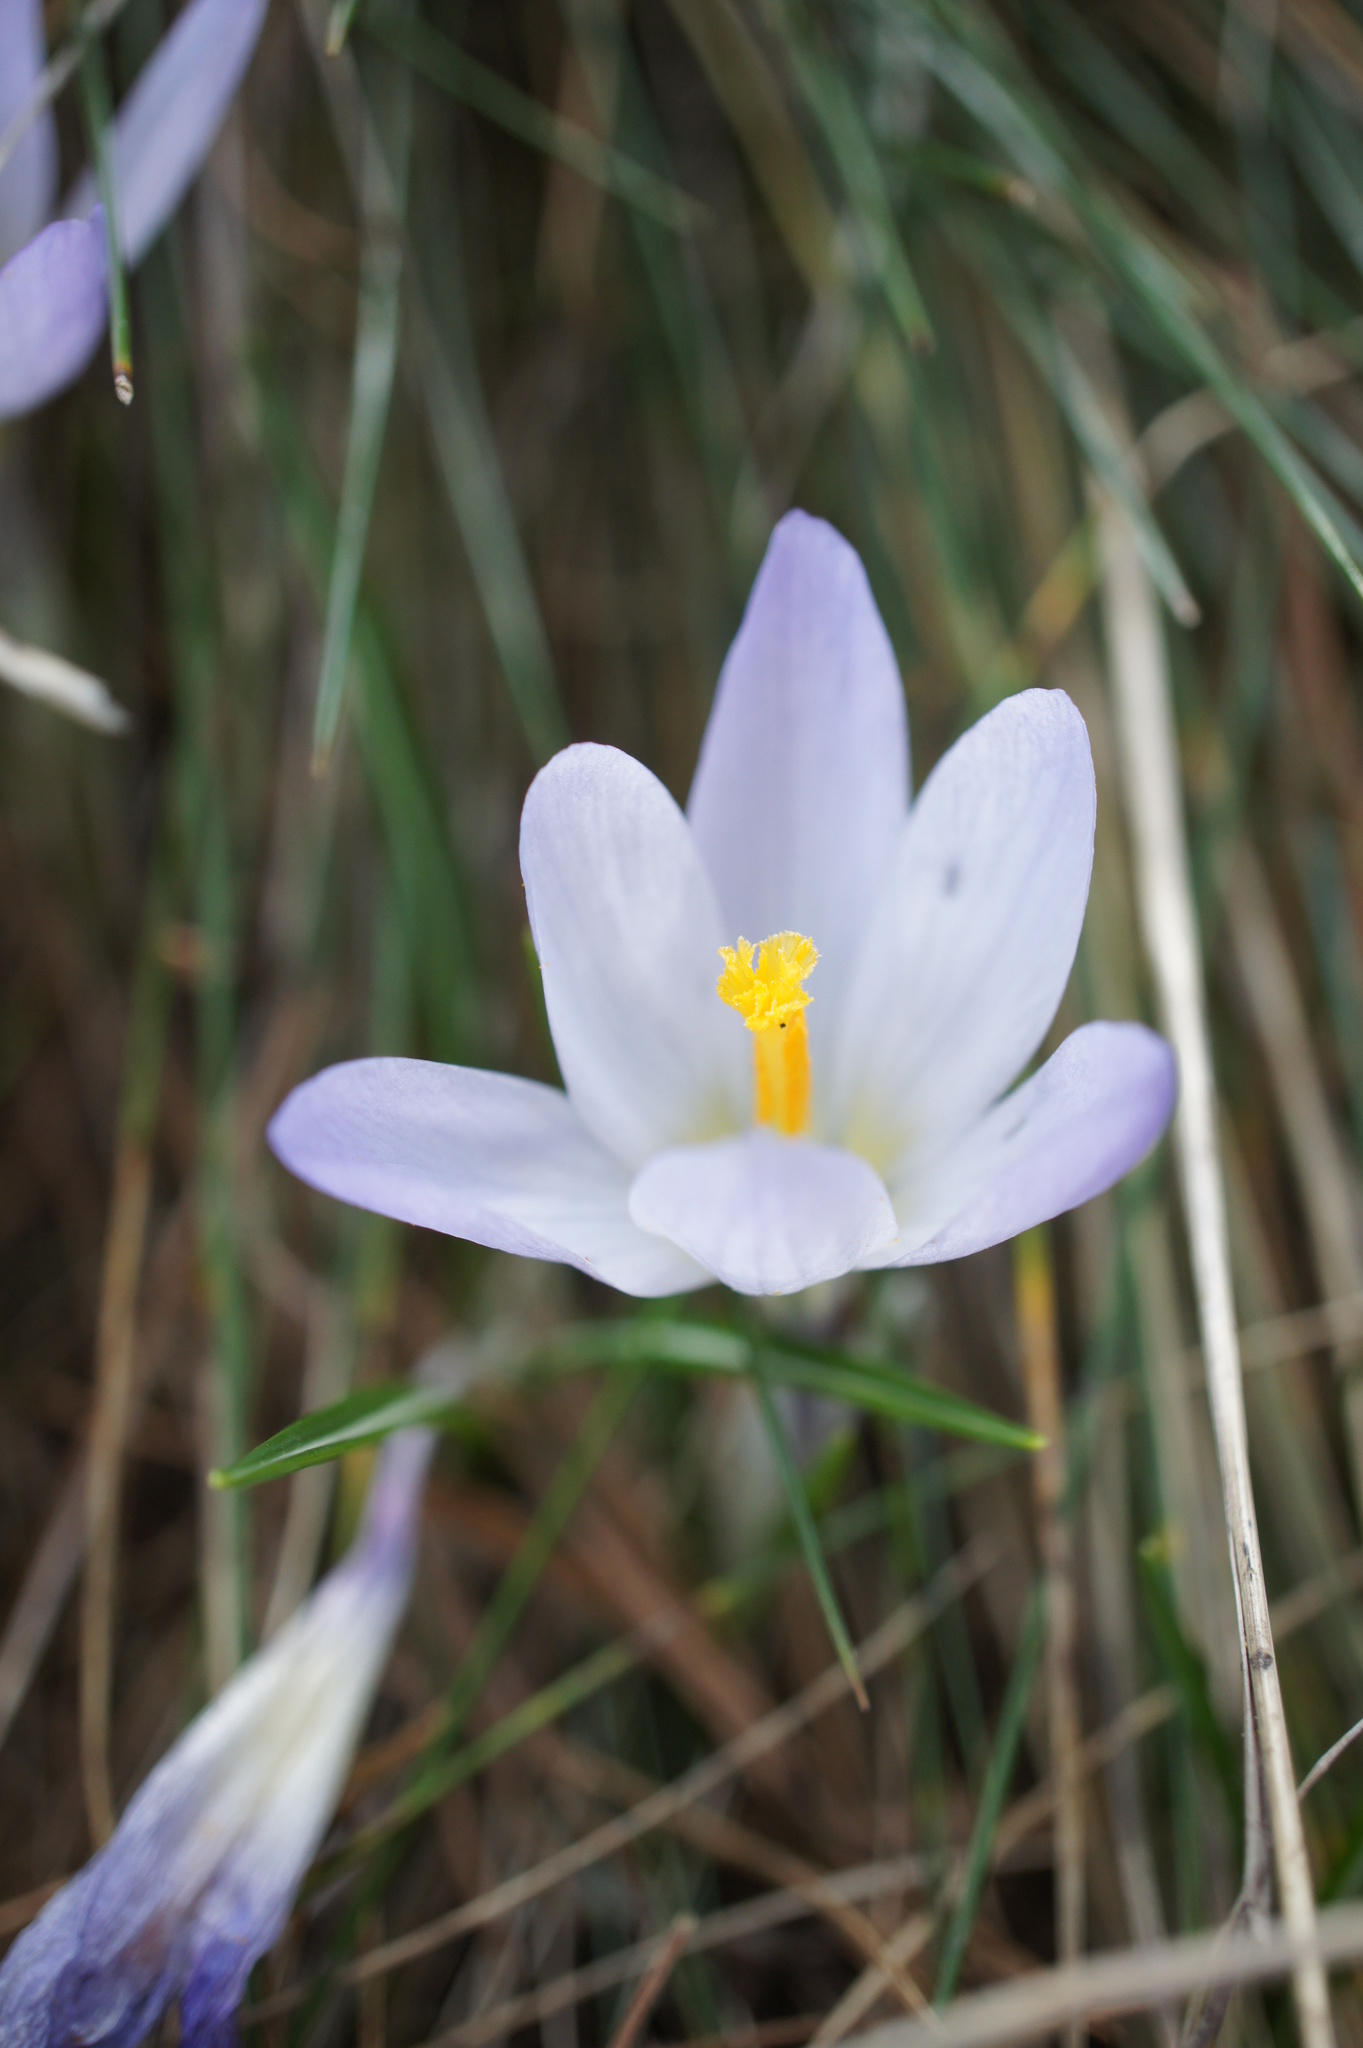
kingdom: Plantae
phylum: Tracheophyta
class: Liliopsida
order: Asparagales
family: Iridaceae
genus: Crocus
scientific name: Crocus nivalis
